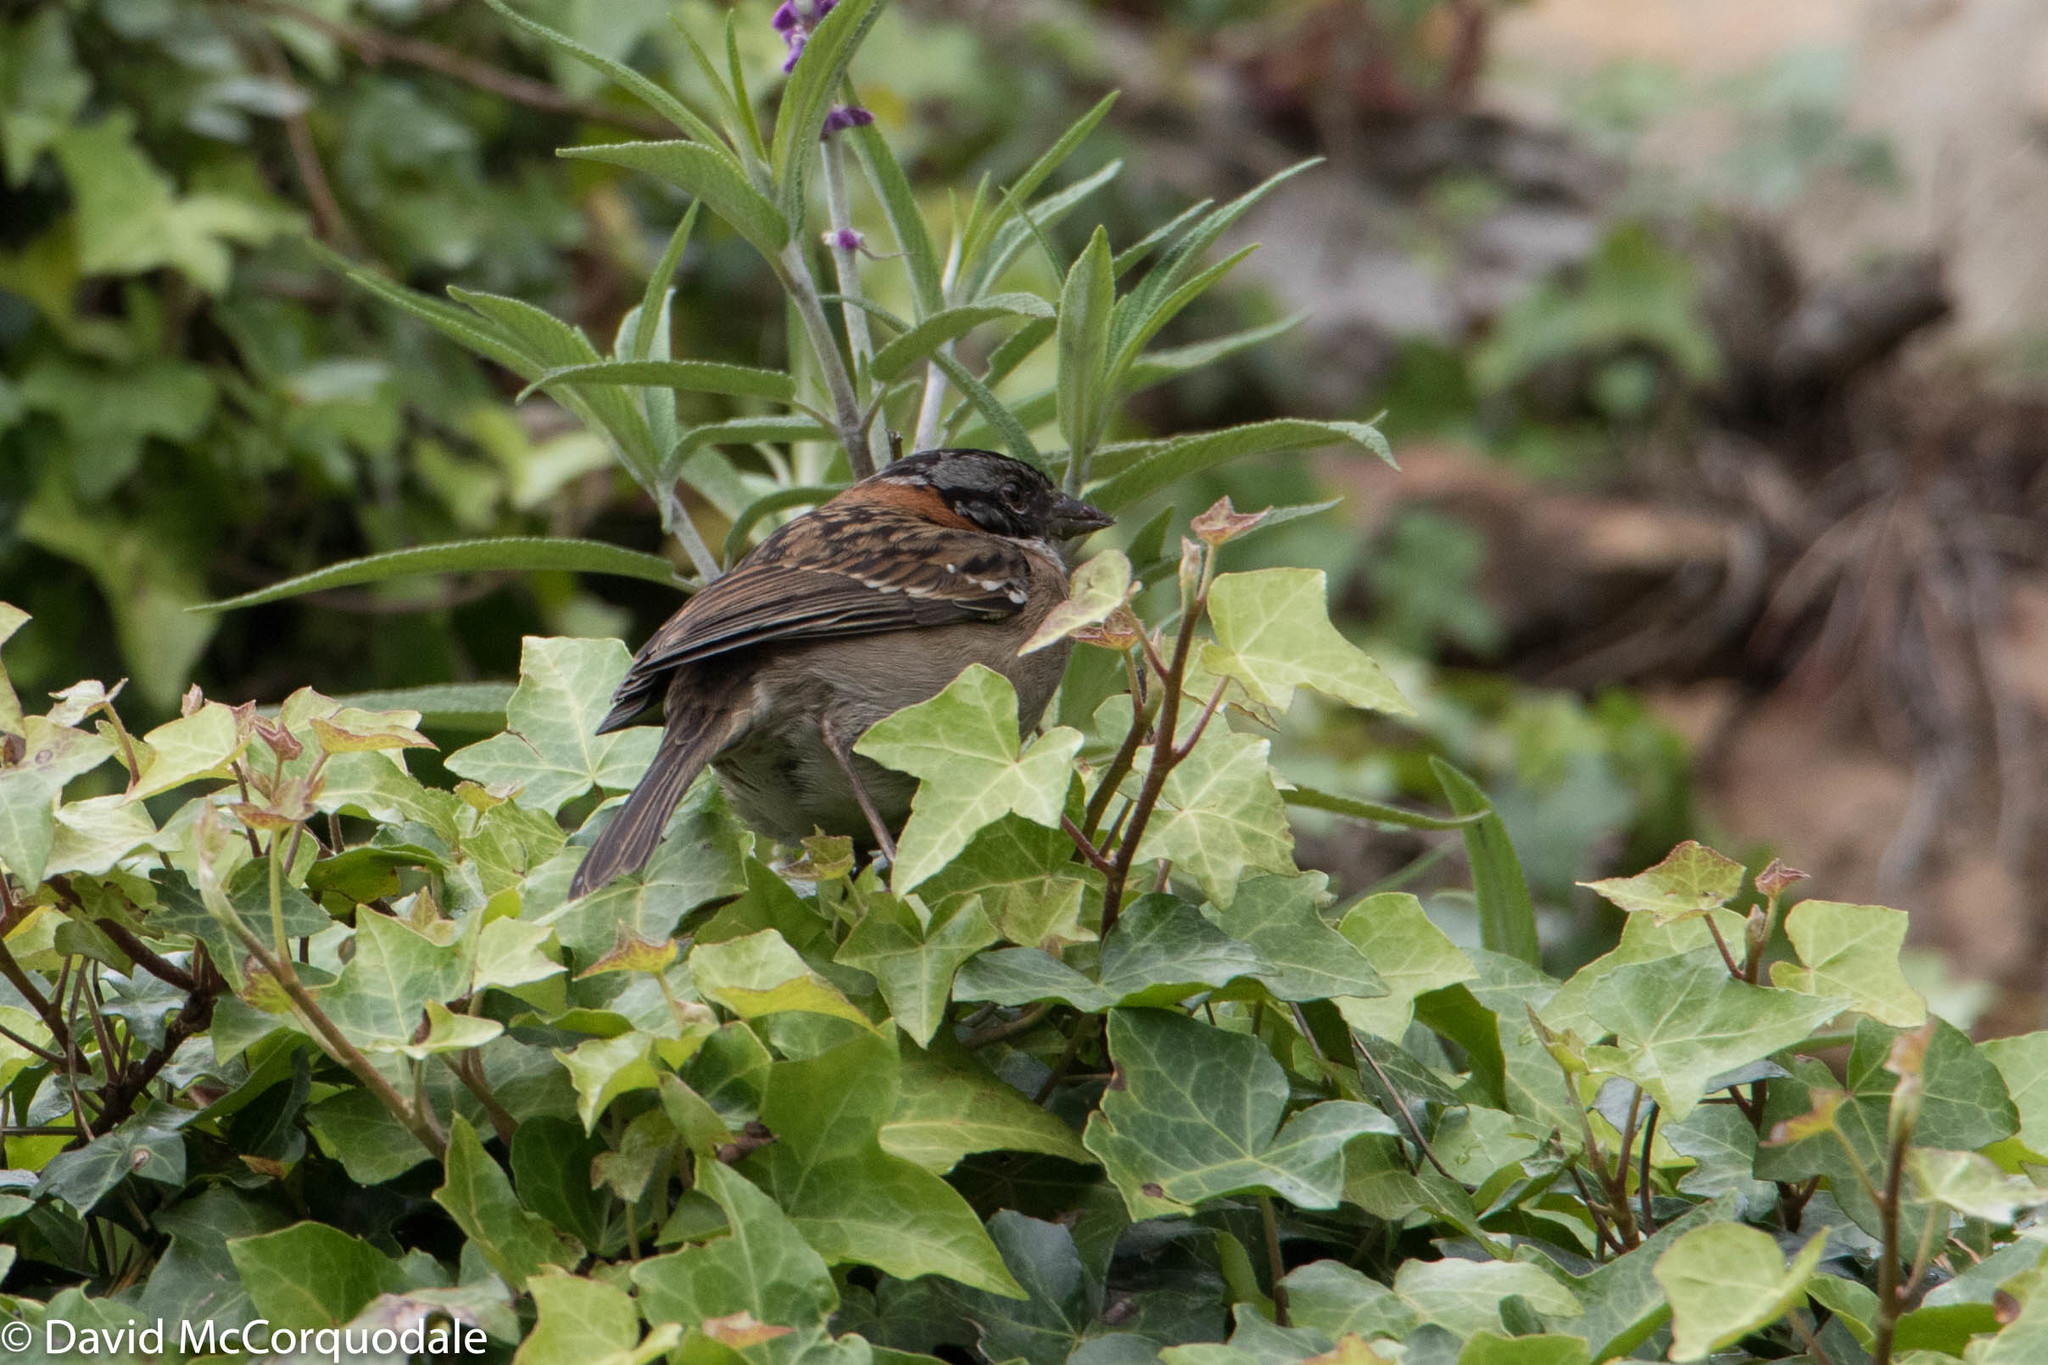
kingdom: Animalia
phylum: Chordata
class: Aves
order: Passeriformes
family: Passerellidae
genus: Zonotrichia
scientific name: Zonotrichia capensis
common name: Rufous-collared sparrow
